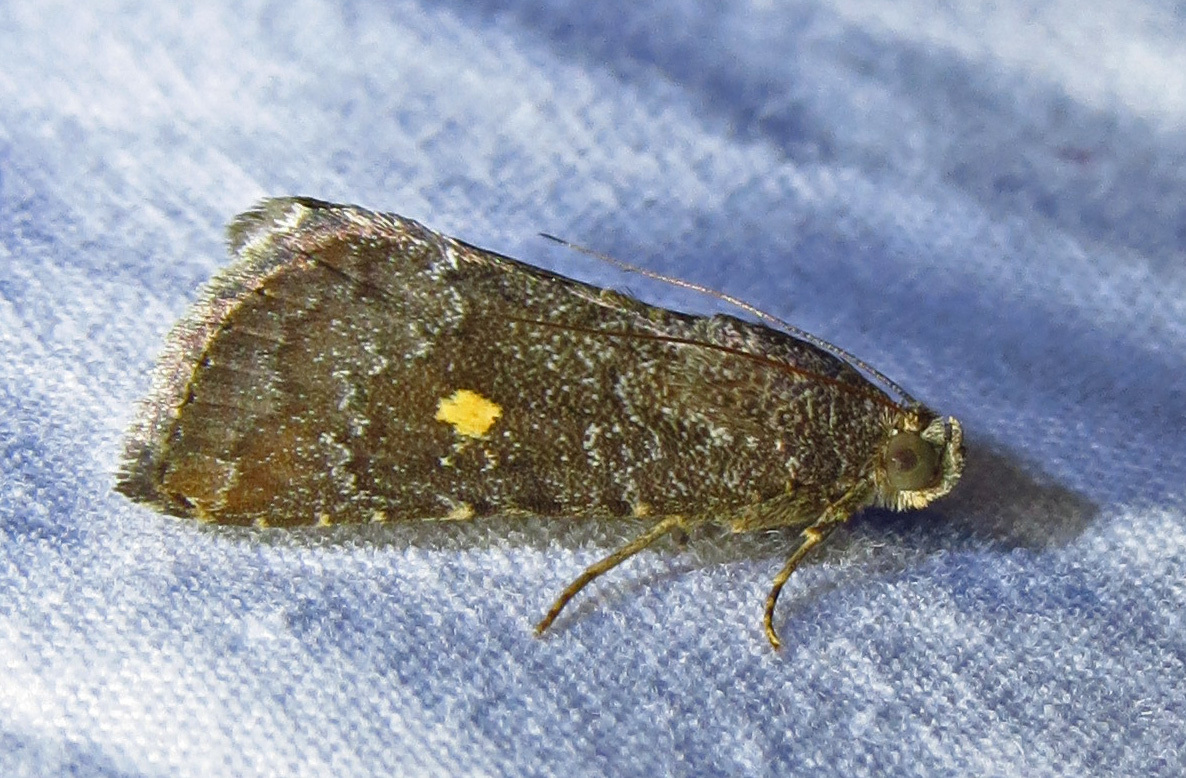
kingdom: Animalia
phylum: Arthropoda
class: Insecta
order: Lepidoptera
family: Noctuidae
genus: Amyna
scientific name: Amyna stricta
